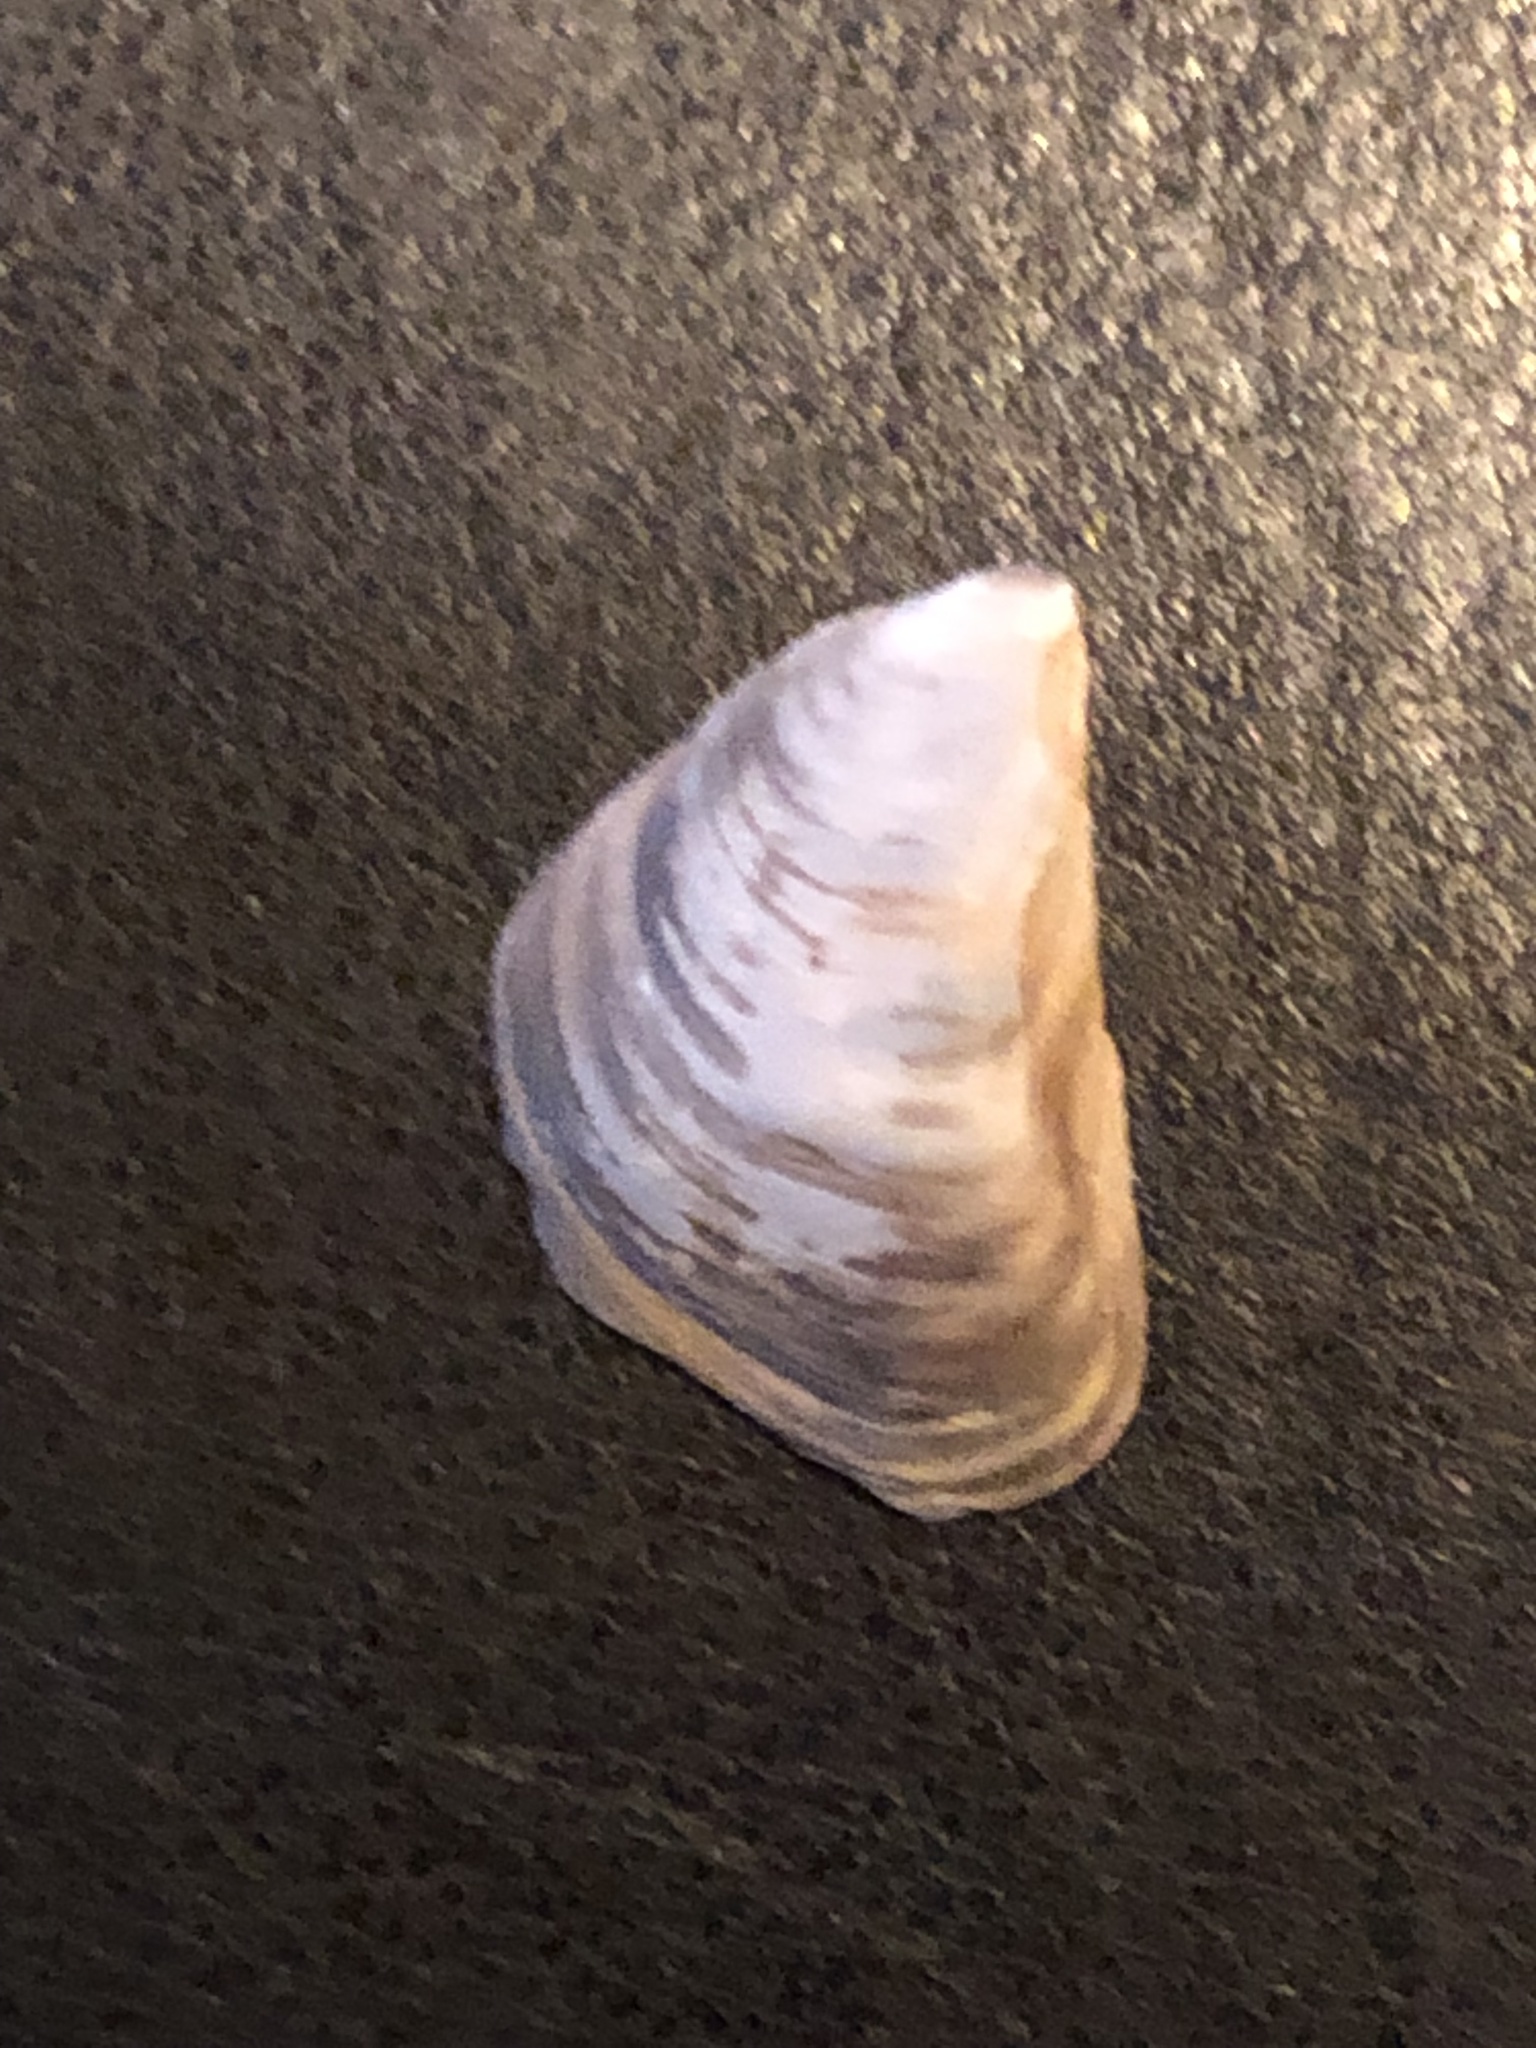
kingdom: Animalia
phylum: Mollusca
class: Bivalvia
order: Myida
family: Dreissenidae
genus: Dreissena
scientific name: Dreissena bugensis
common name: Quagga mussel
